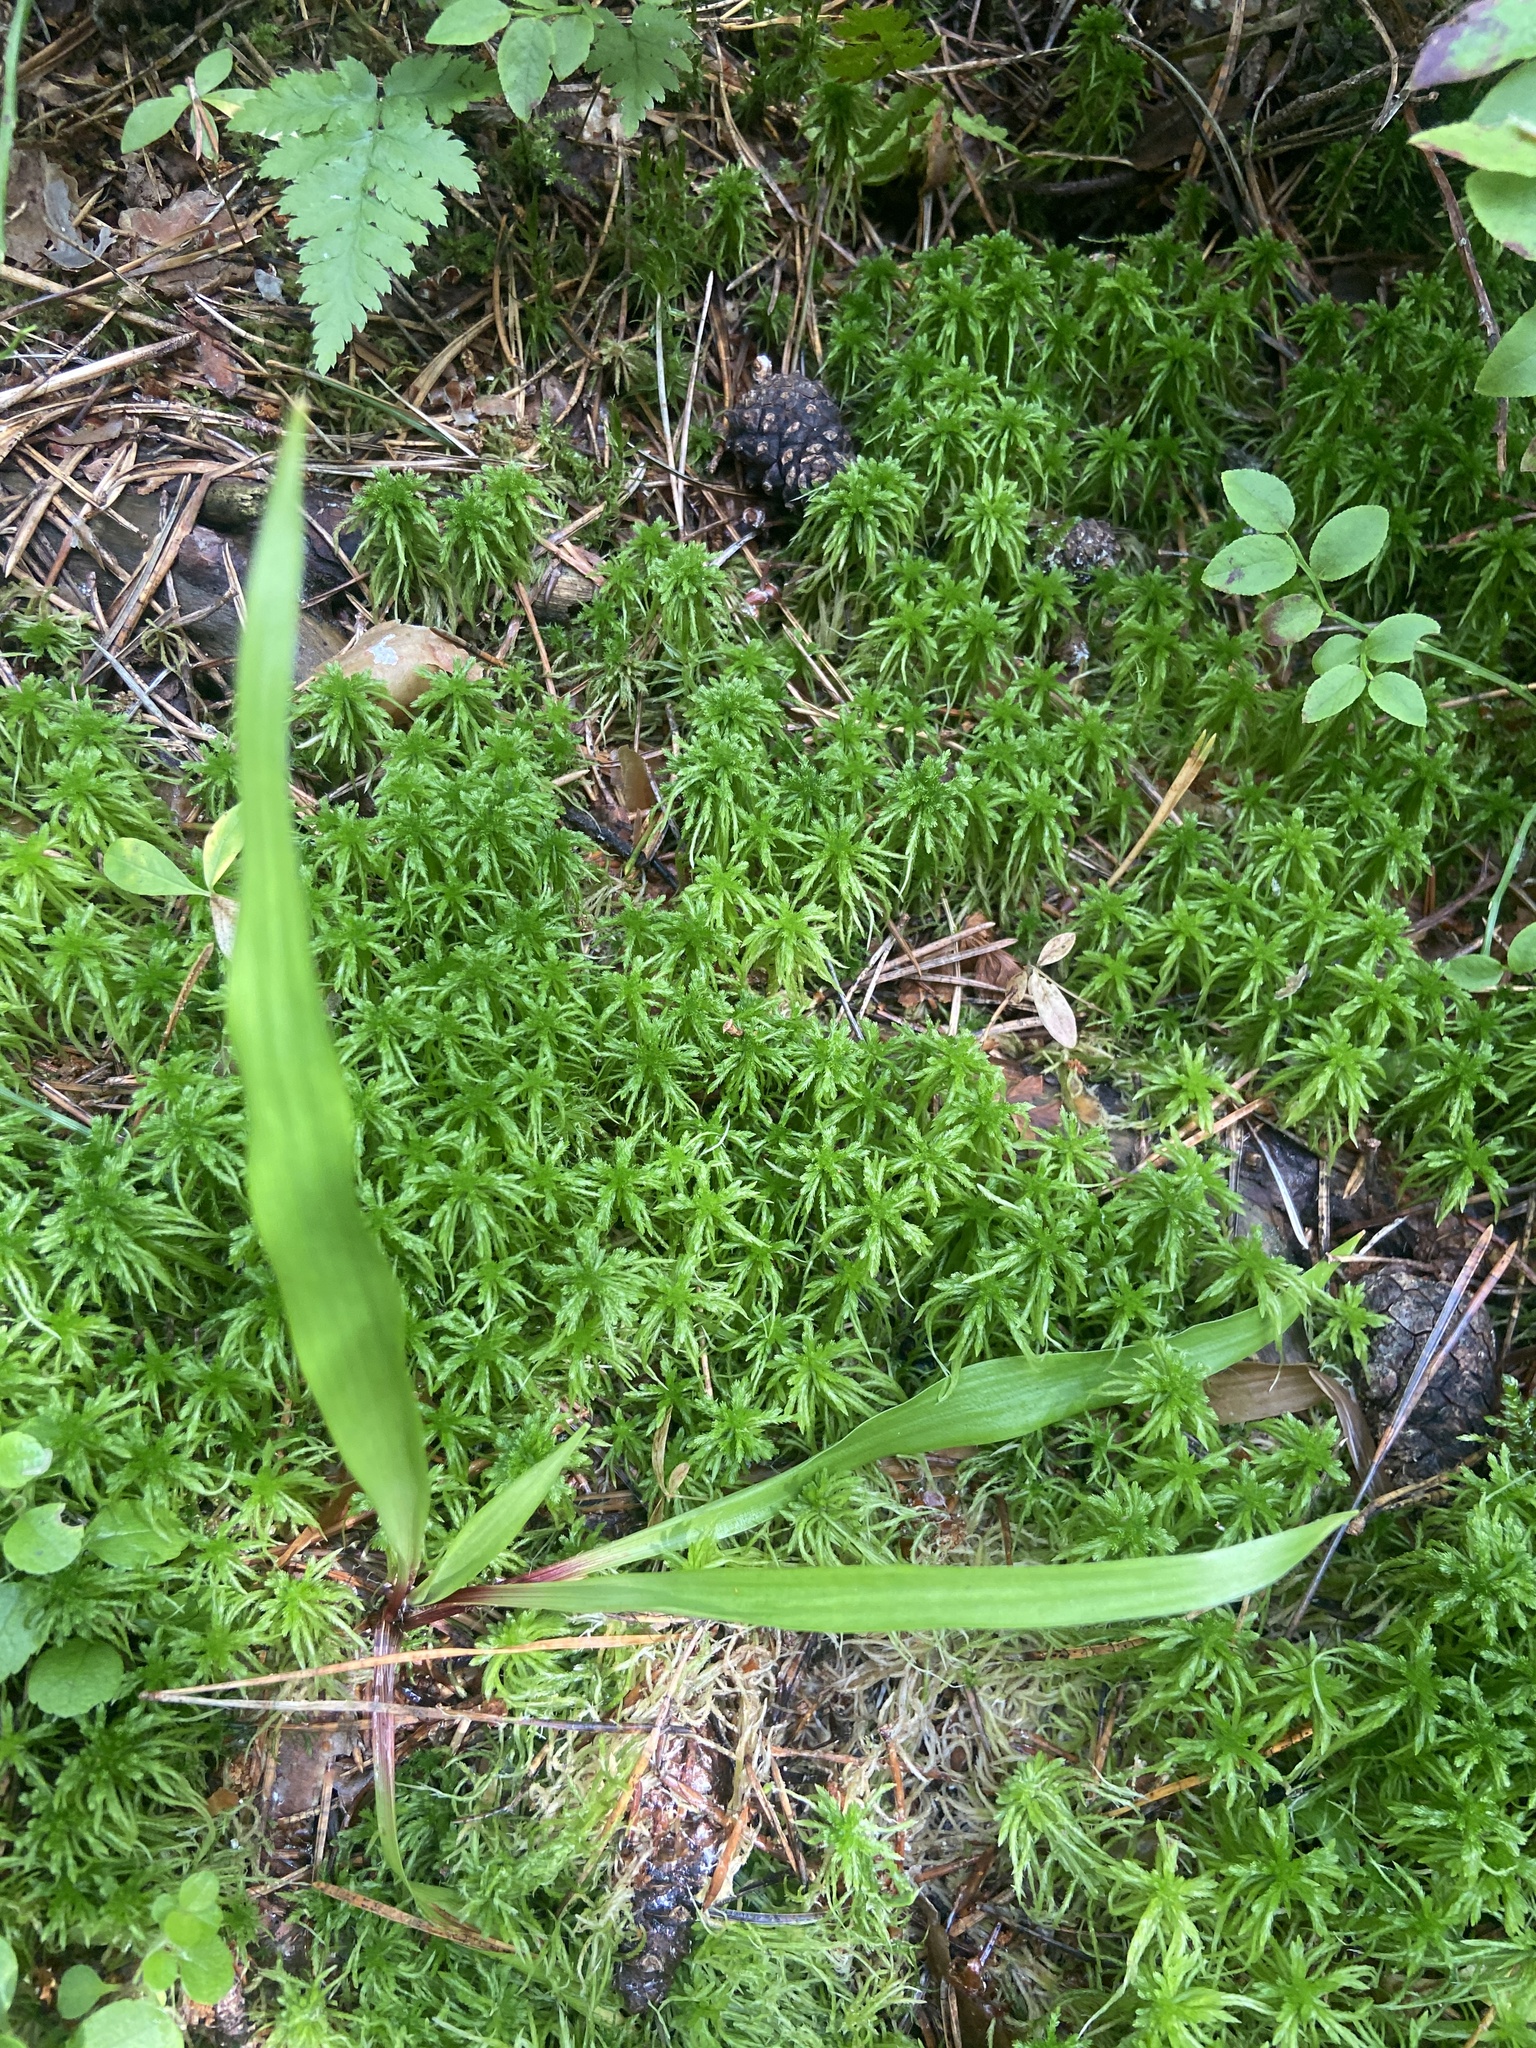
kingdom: Plantae
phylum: Tracheophyta
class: Liliopsida
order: Poales
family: Juncaceae
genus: Luzula
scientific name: Luzula pilosa
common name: Hairy wood-rush
